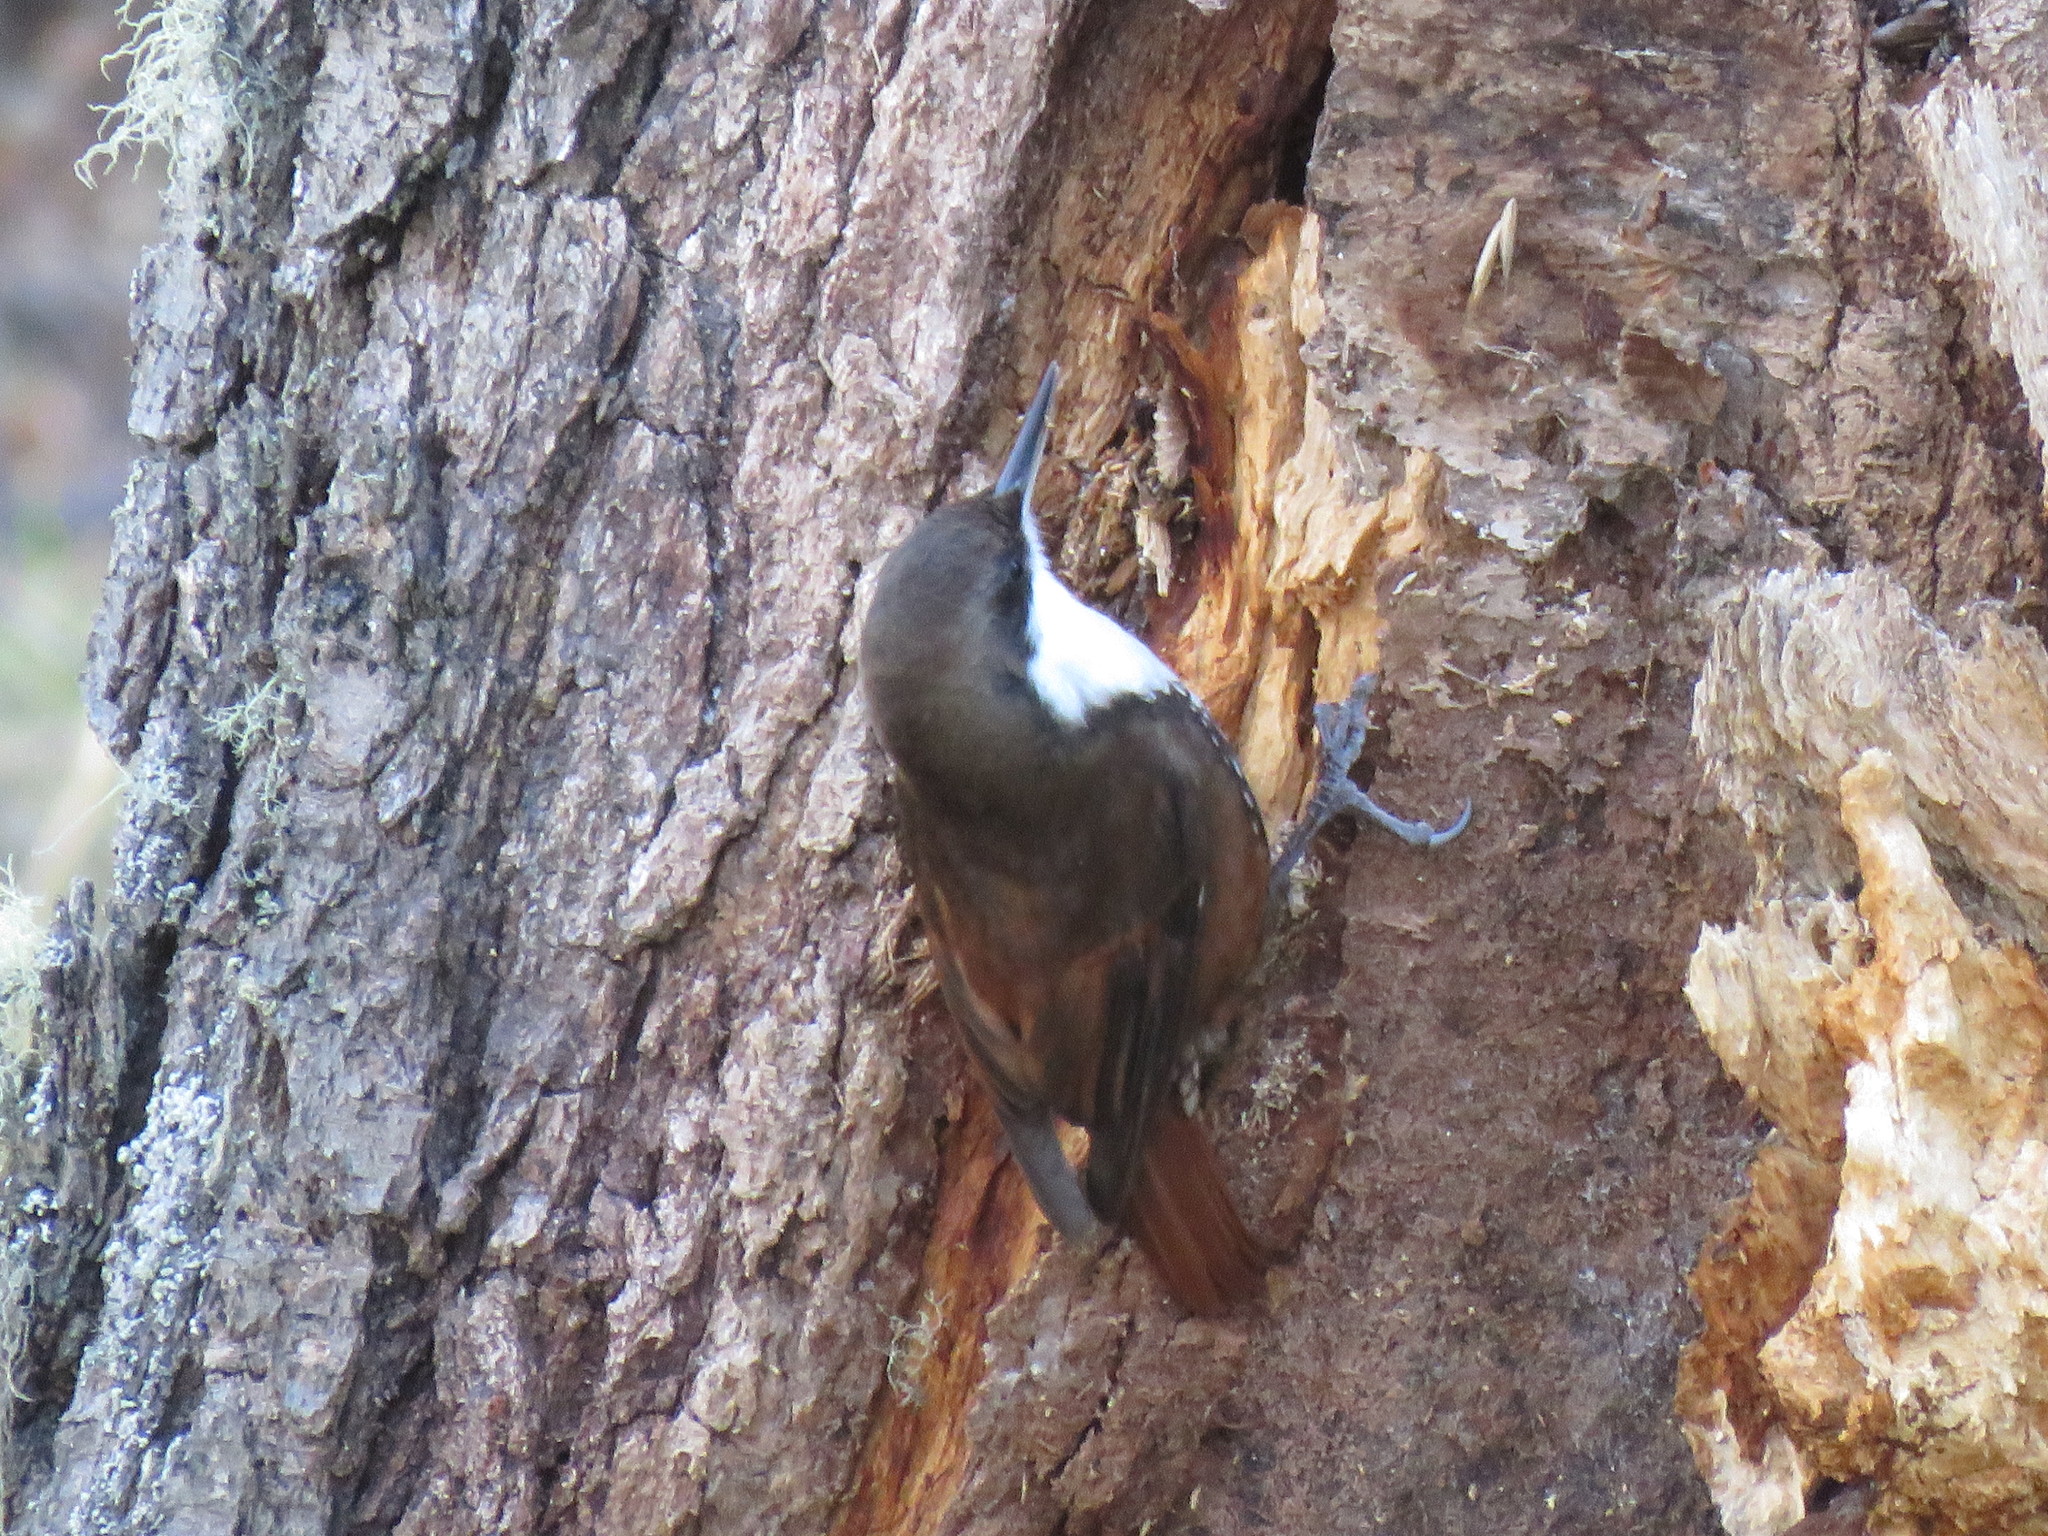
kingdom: Animalia
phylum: Chordata
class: Aves
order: Passeriformes
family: Furnariidae
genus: Pygarrhichas
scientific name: Pygarrhichas albogularis
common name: White-throated treerunner
